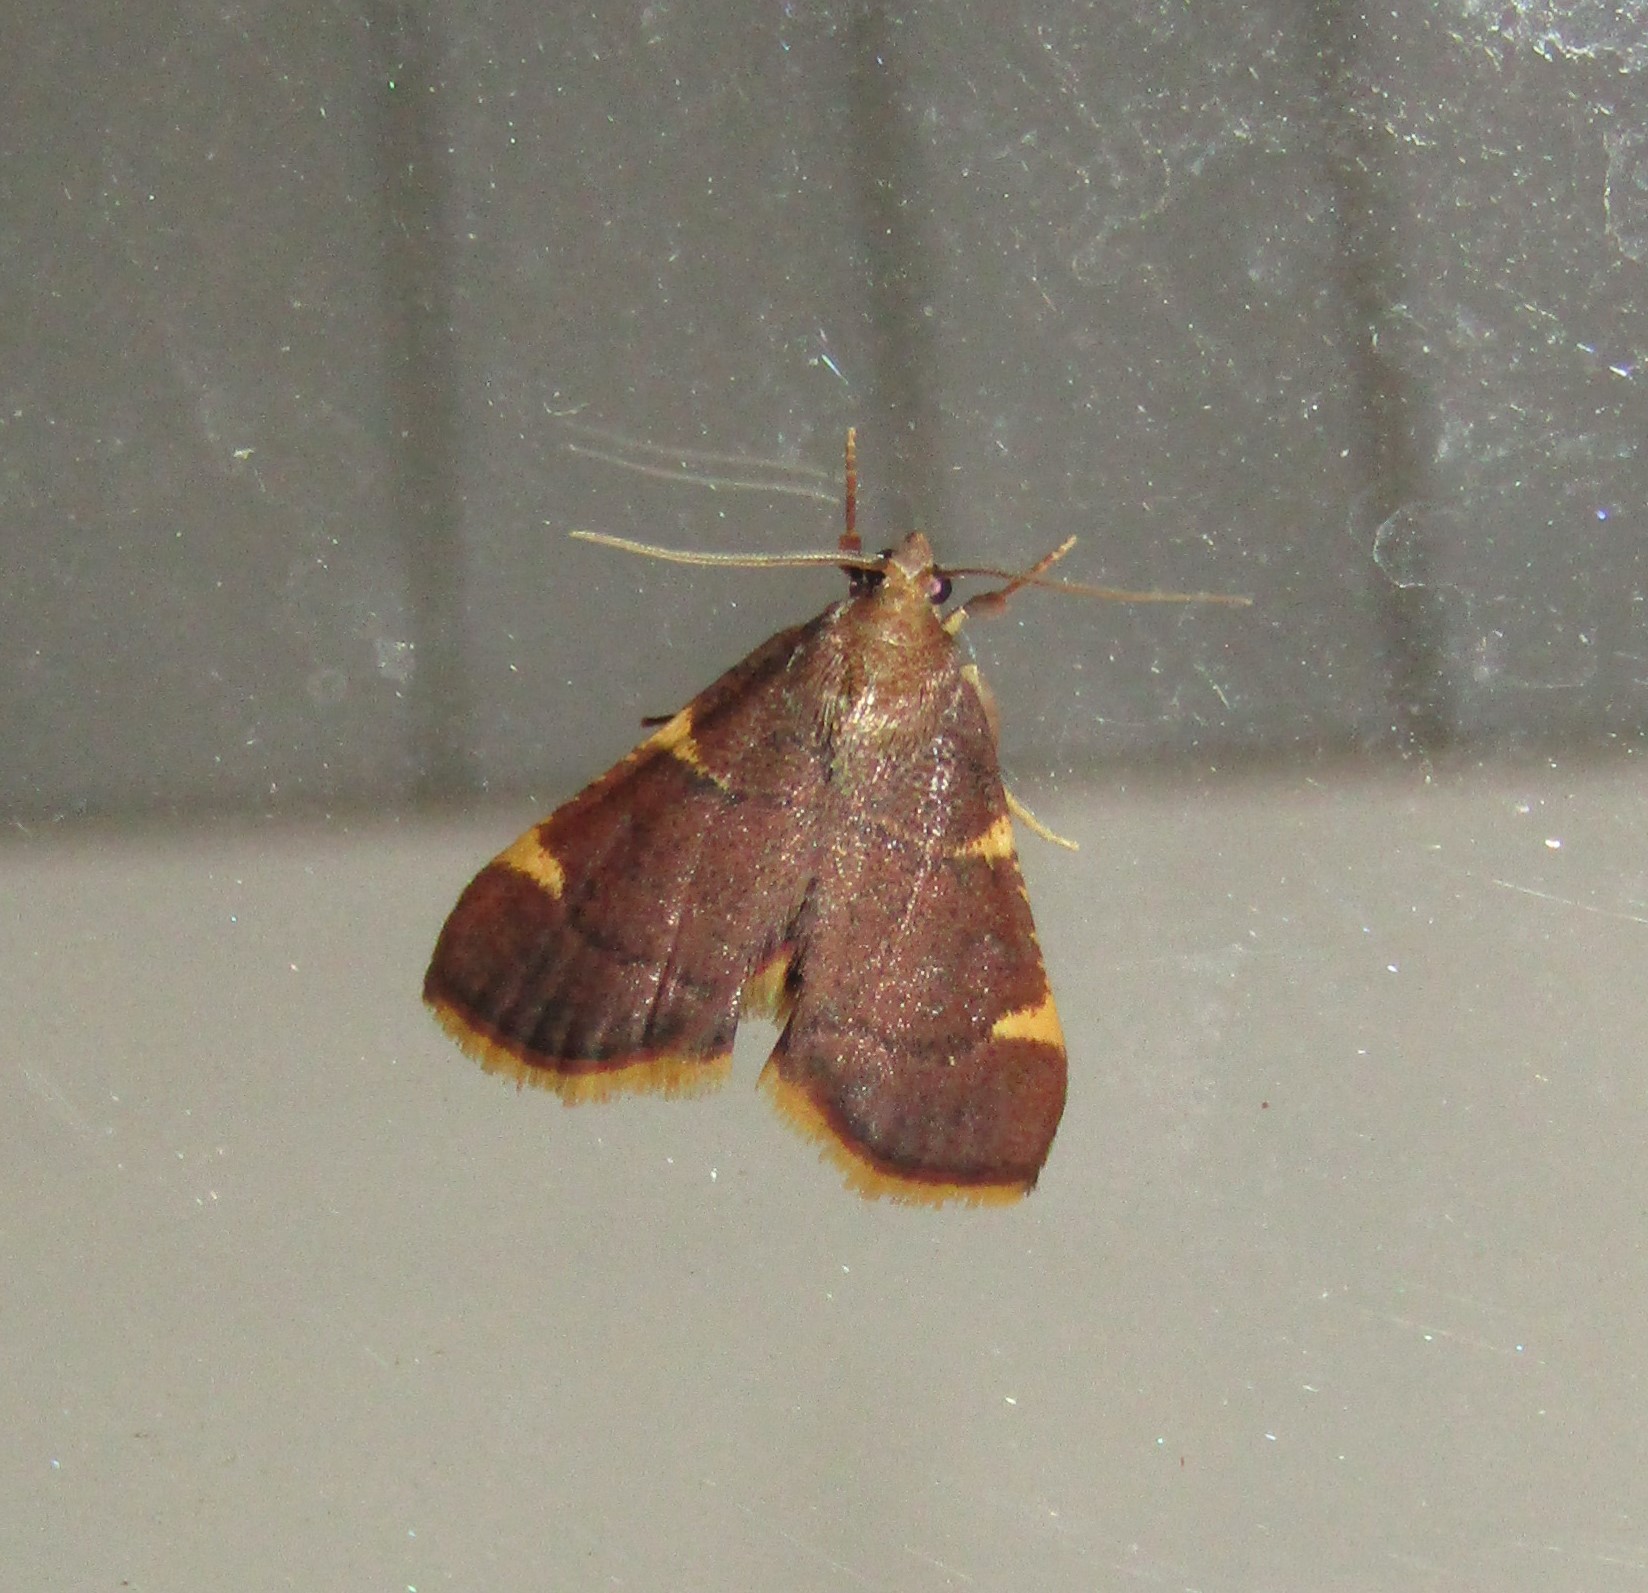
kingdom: Animalia
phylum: Arthropoda
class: Insecta
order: Lepidoptera
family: Pyralidae
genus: Hypsopygia
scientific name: Hypsopygia olinalis
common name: Yellow-fringed dolichomia moth
